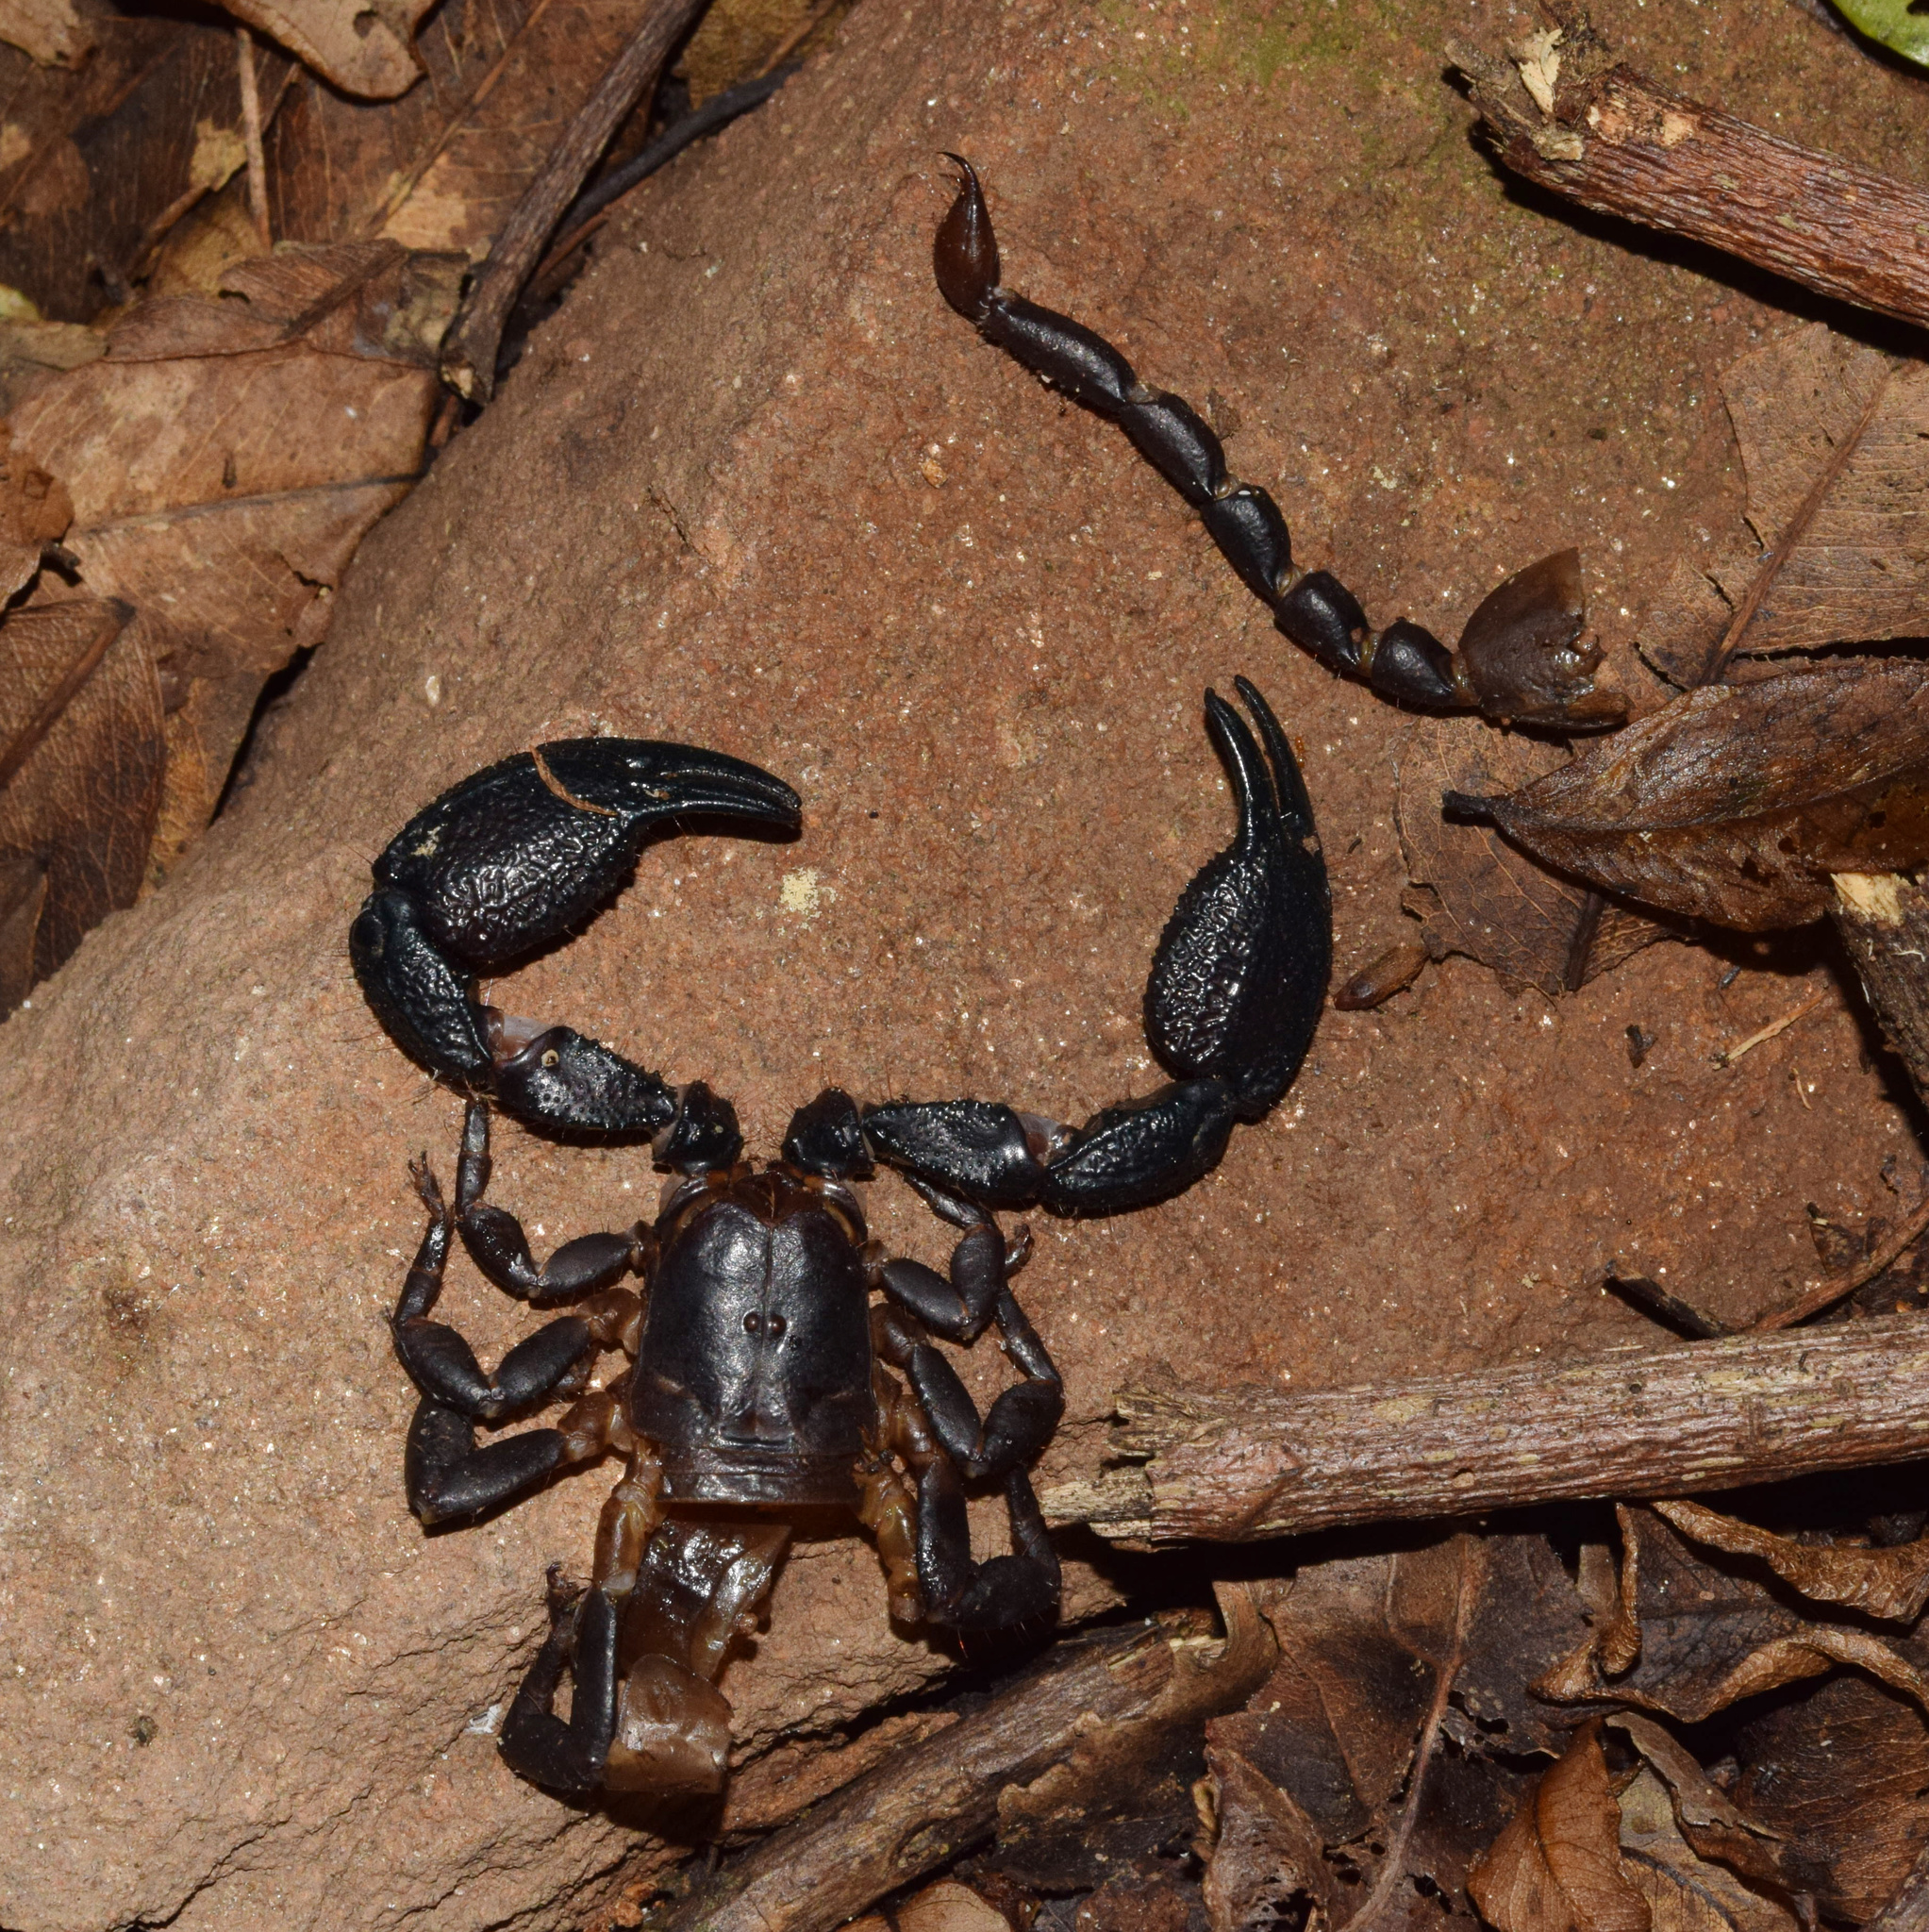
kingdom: Animalia
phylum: Arthropoda
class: Arachnida
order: Scorpiones
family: Hormuridae
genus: Opisthacanthus
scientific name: Opisthacanthus validus
